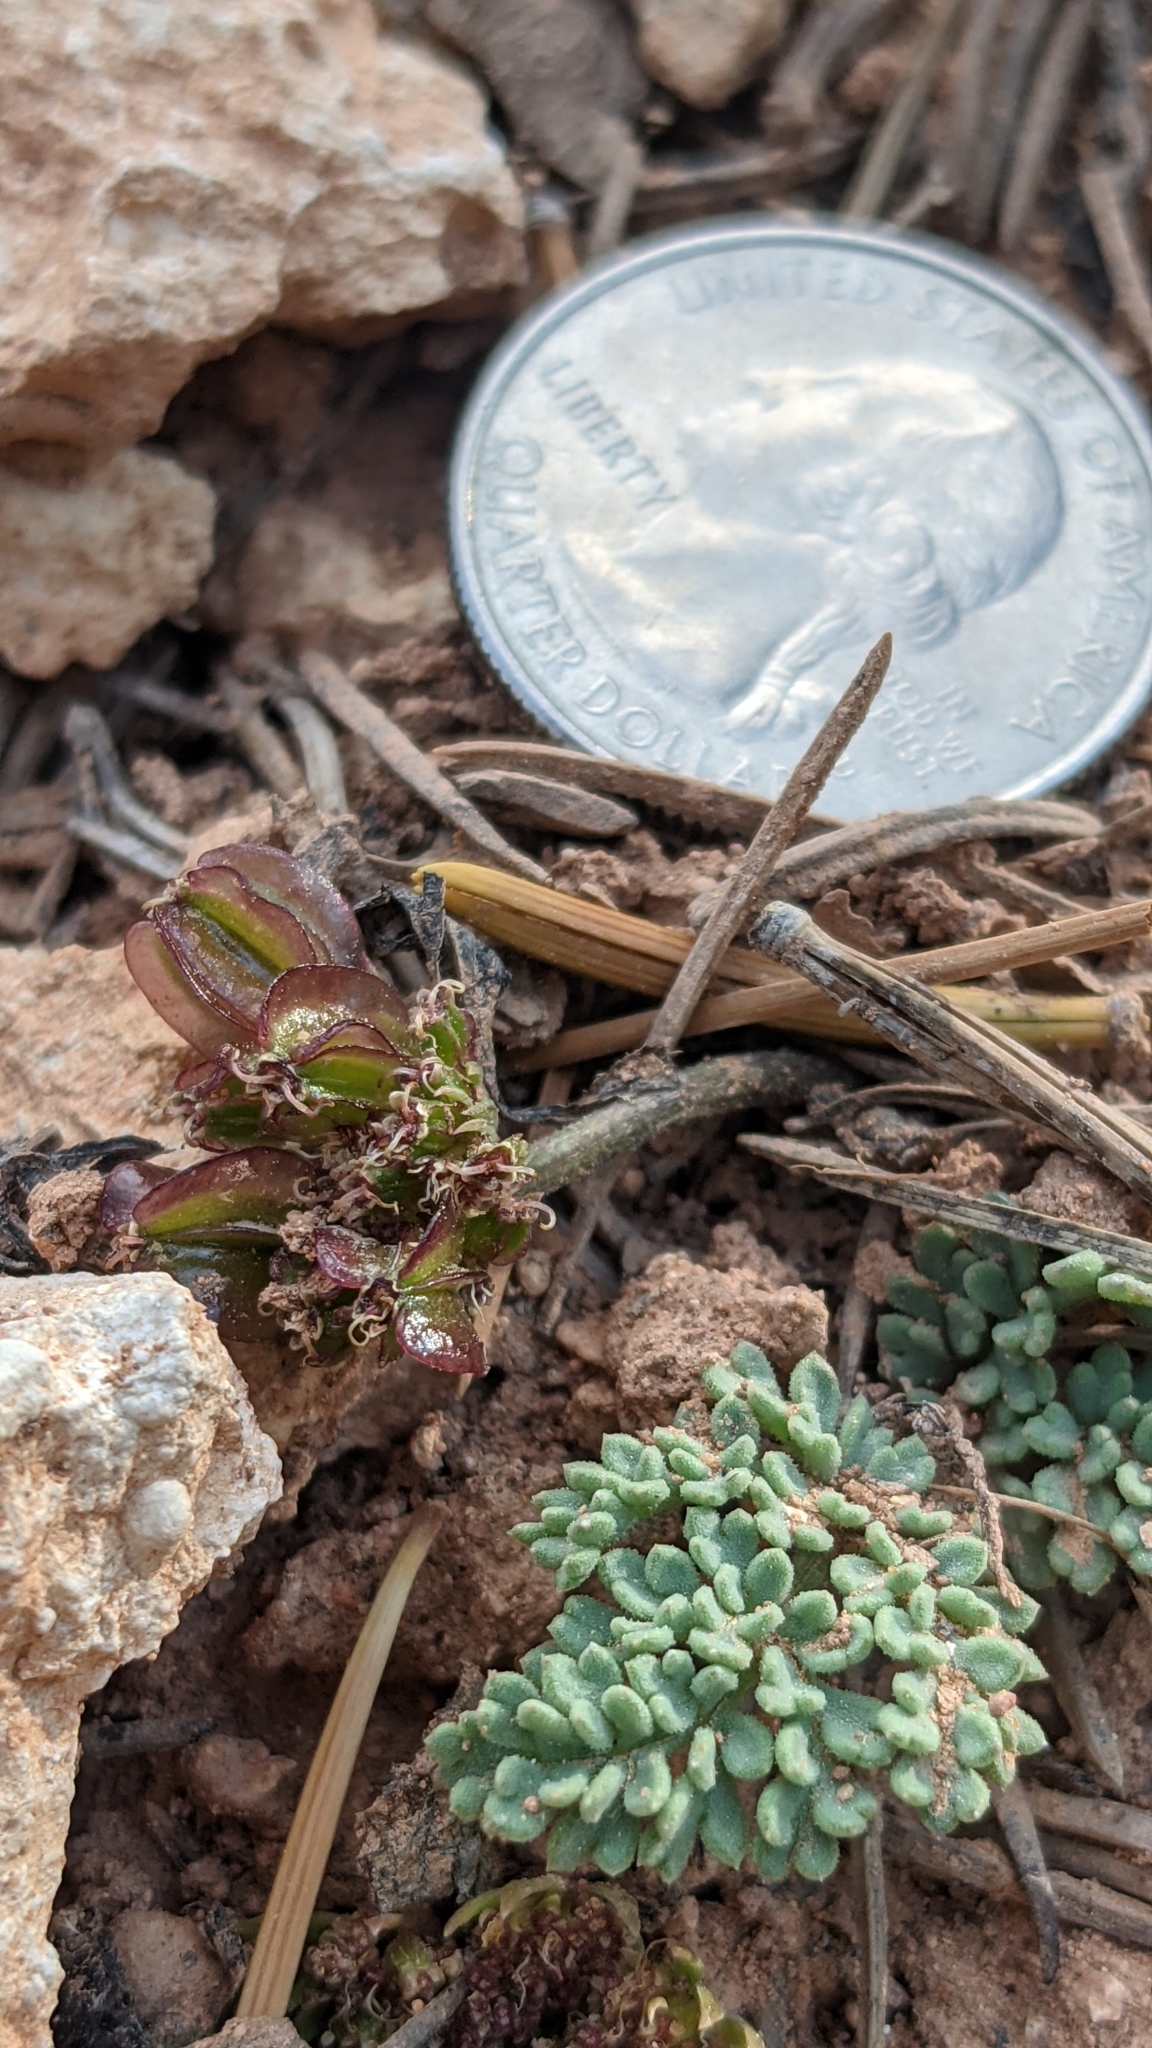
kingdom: Plantae
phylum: Tracheophyta
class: Magnoliopsida
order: Apiales
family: Apiaceae
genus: Aulospermum
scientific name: Aulospermum minimum
